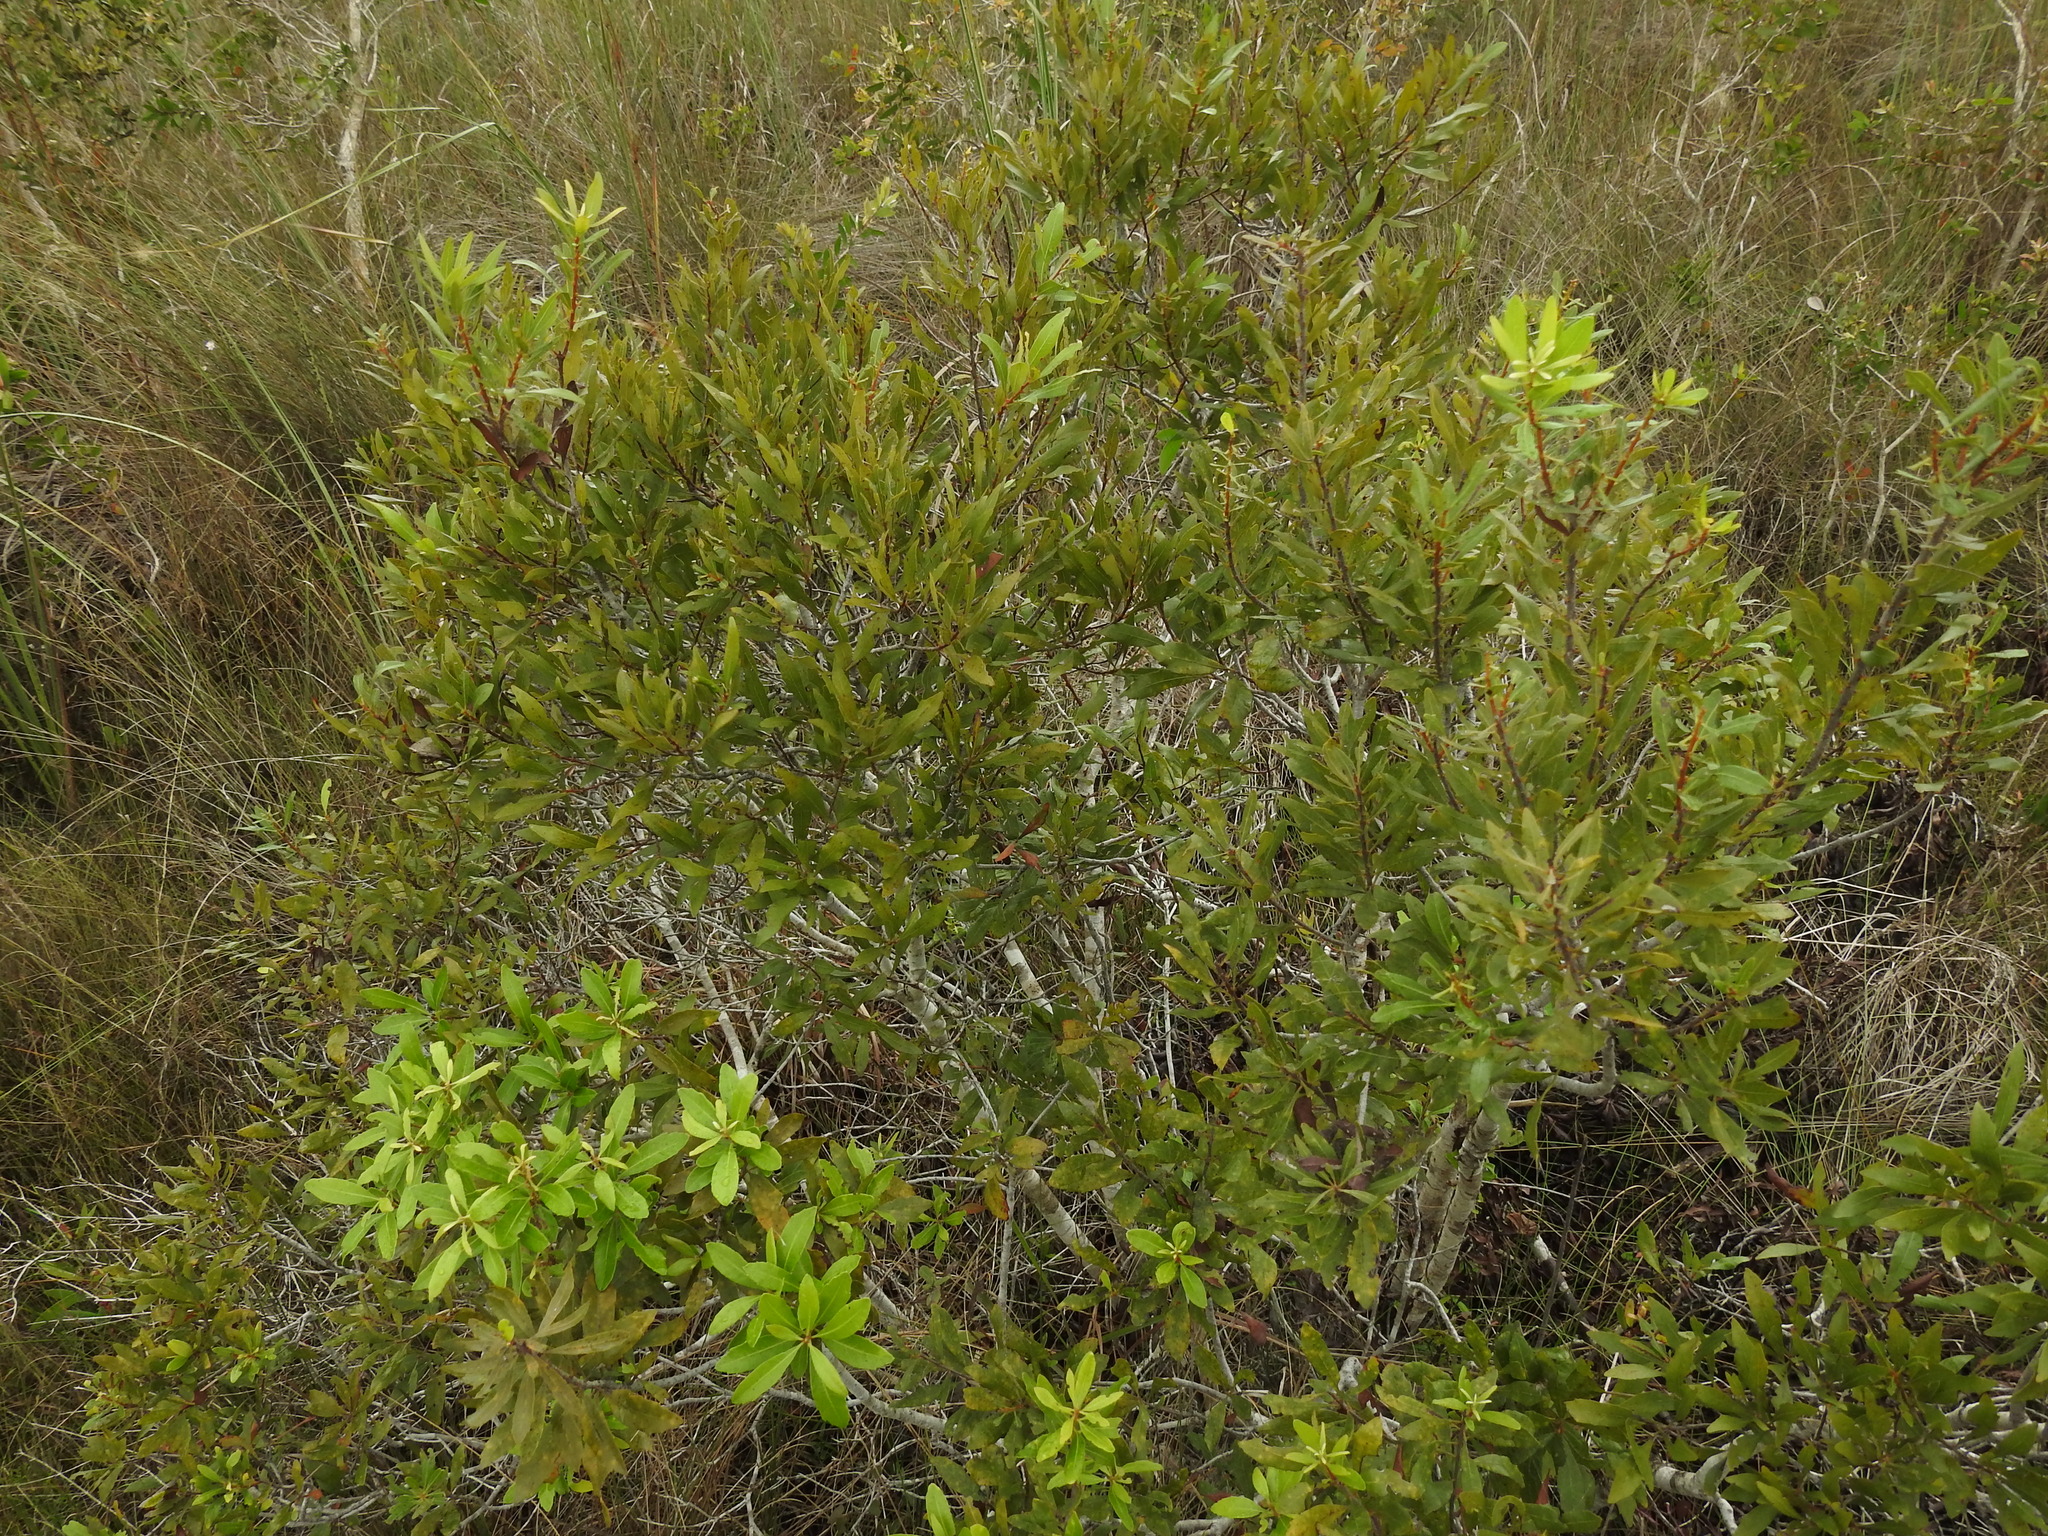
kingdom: Plantae
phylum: Tracheophyta
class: Magnoliopsida
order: Fagales
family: Myricaceae
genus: Morella
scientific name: Morella cerifera
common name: Wax myrtle
